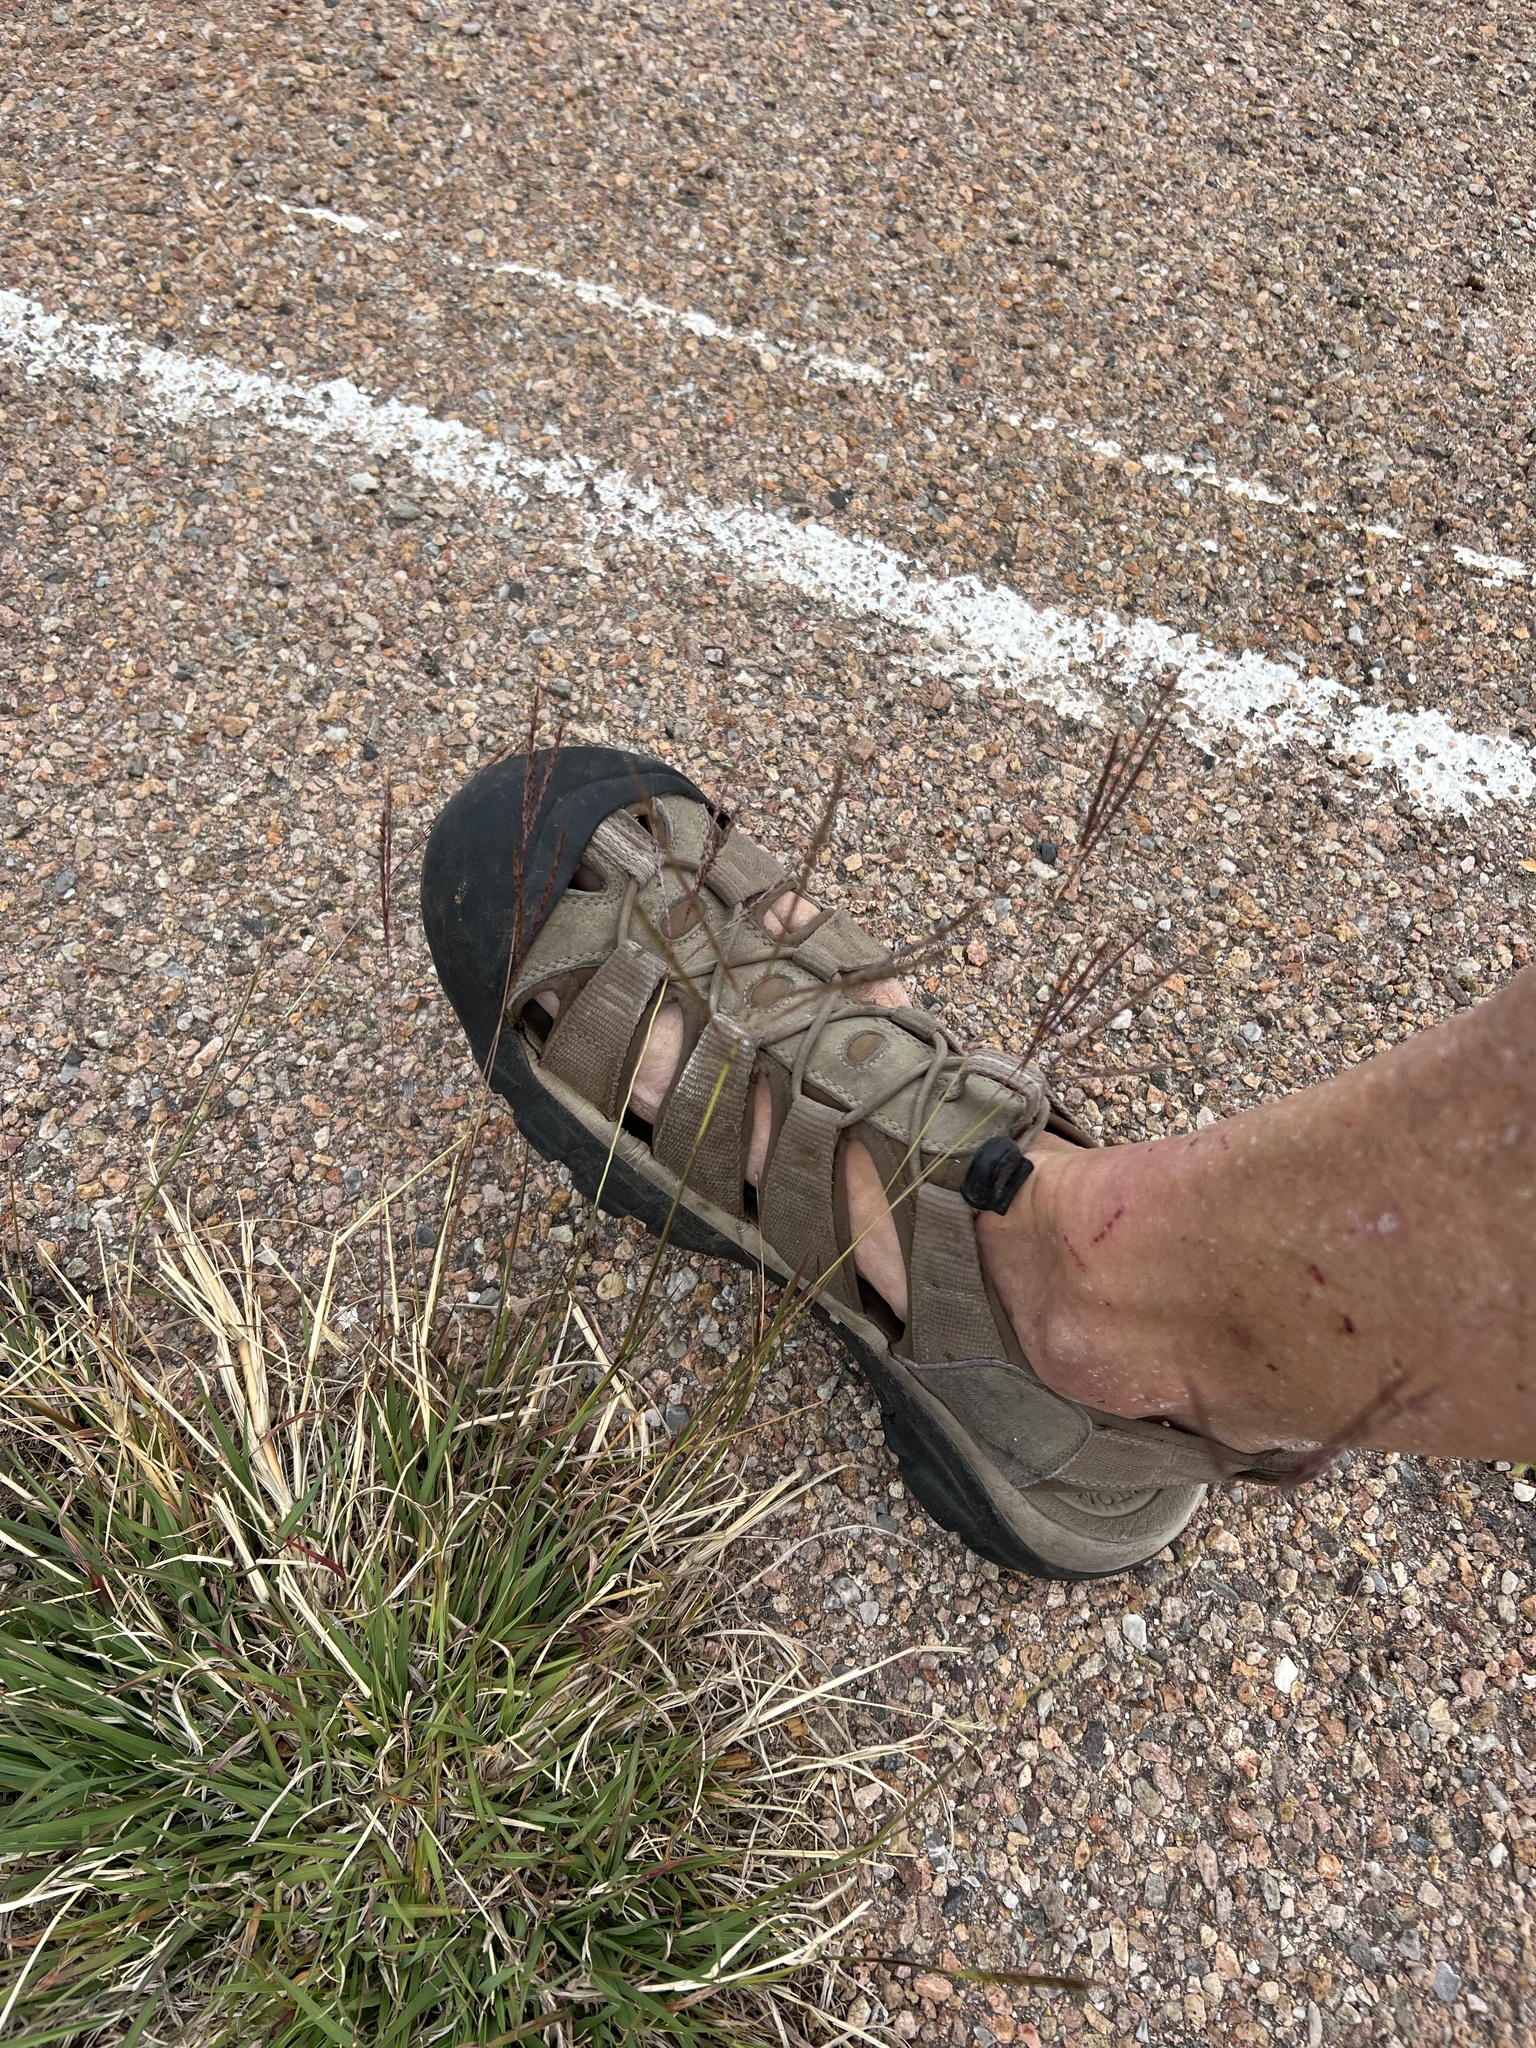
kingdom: Plantae
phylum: Tracheophyta
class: Liliopsida
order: Poales
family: Poaceae
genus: Cynodon
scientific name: Cynodon dactylon
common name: Bermuda grass
